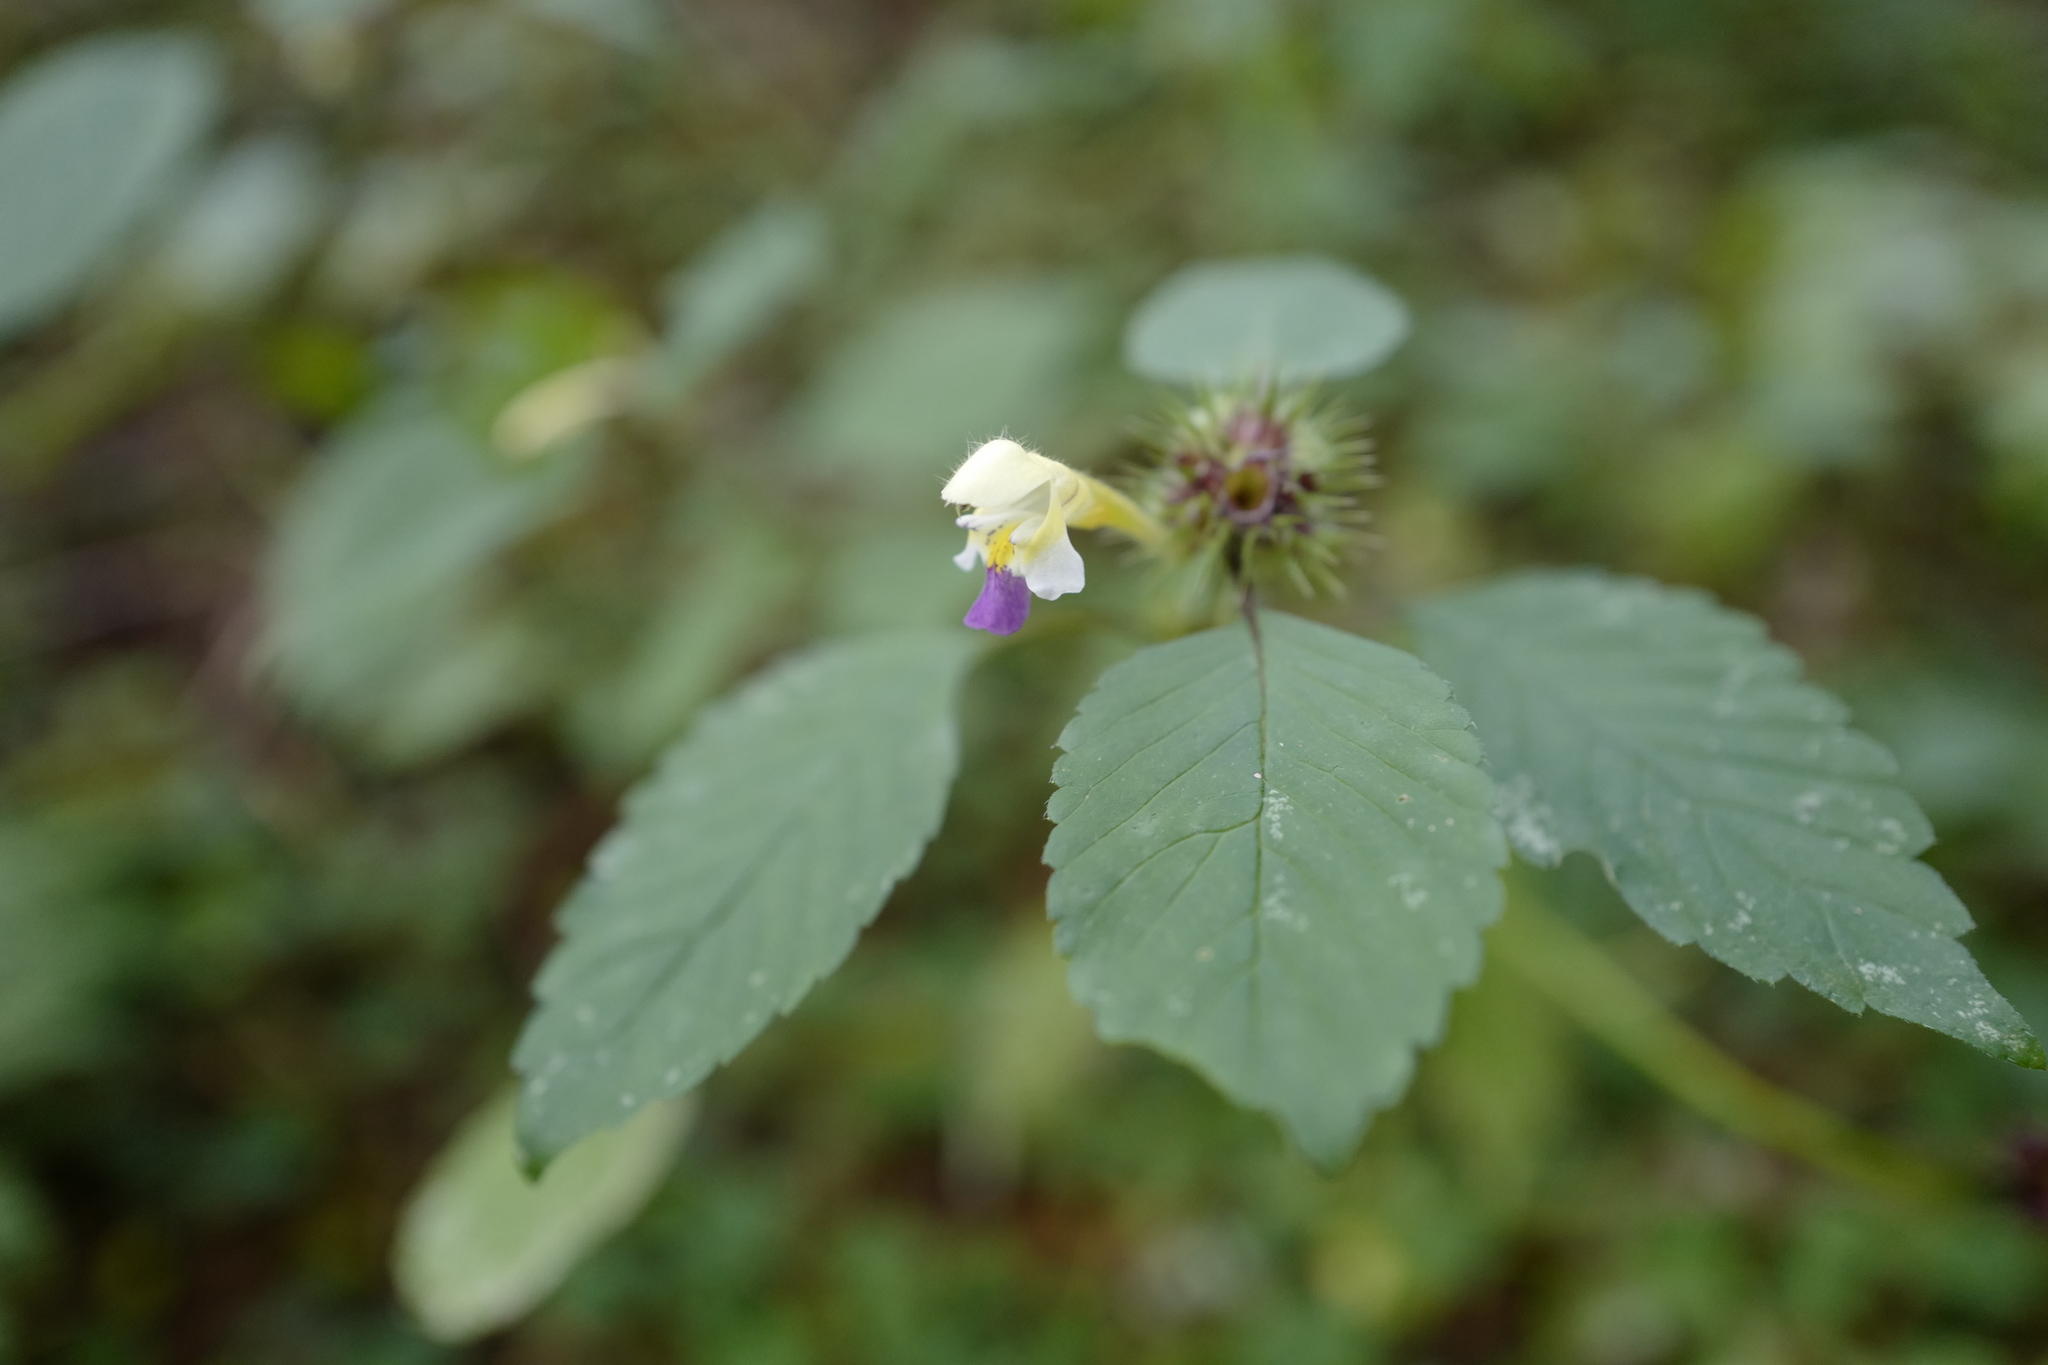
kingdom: Plantae
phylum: Tracheophyta
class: Magnoliopsida
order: Lamiales
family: Lamiaceae
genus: Galeopsis
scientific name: Galeopsis speciosa
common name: Large-flowered hemp-nettle
